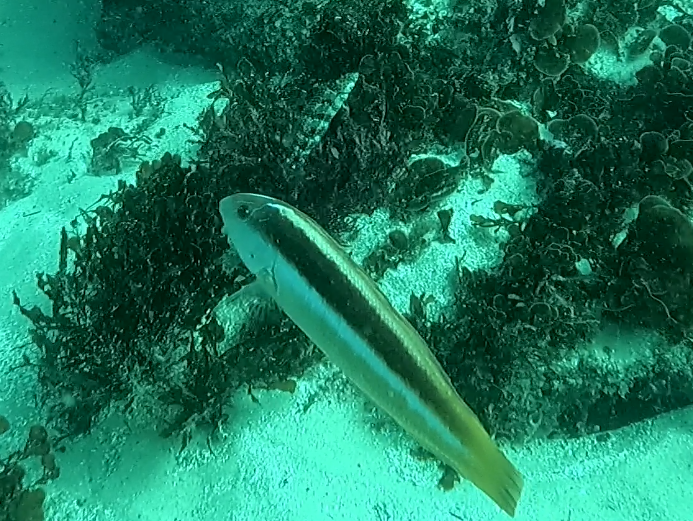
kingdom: Animalia
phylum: Chordata
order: Perciformes
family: Labridae
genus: Ophthalmolepis
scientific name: Ophthalmolepis lineolata
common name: Maori wrasse
